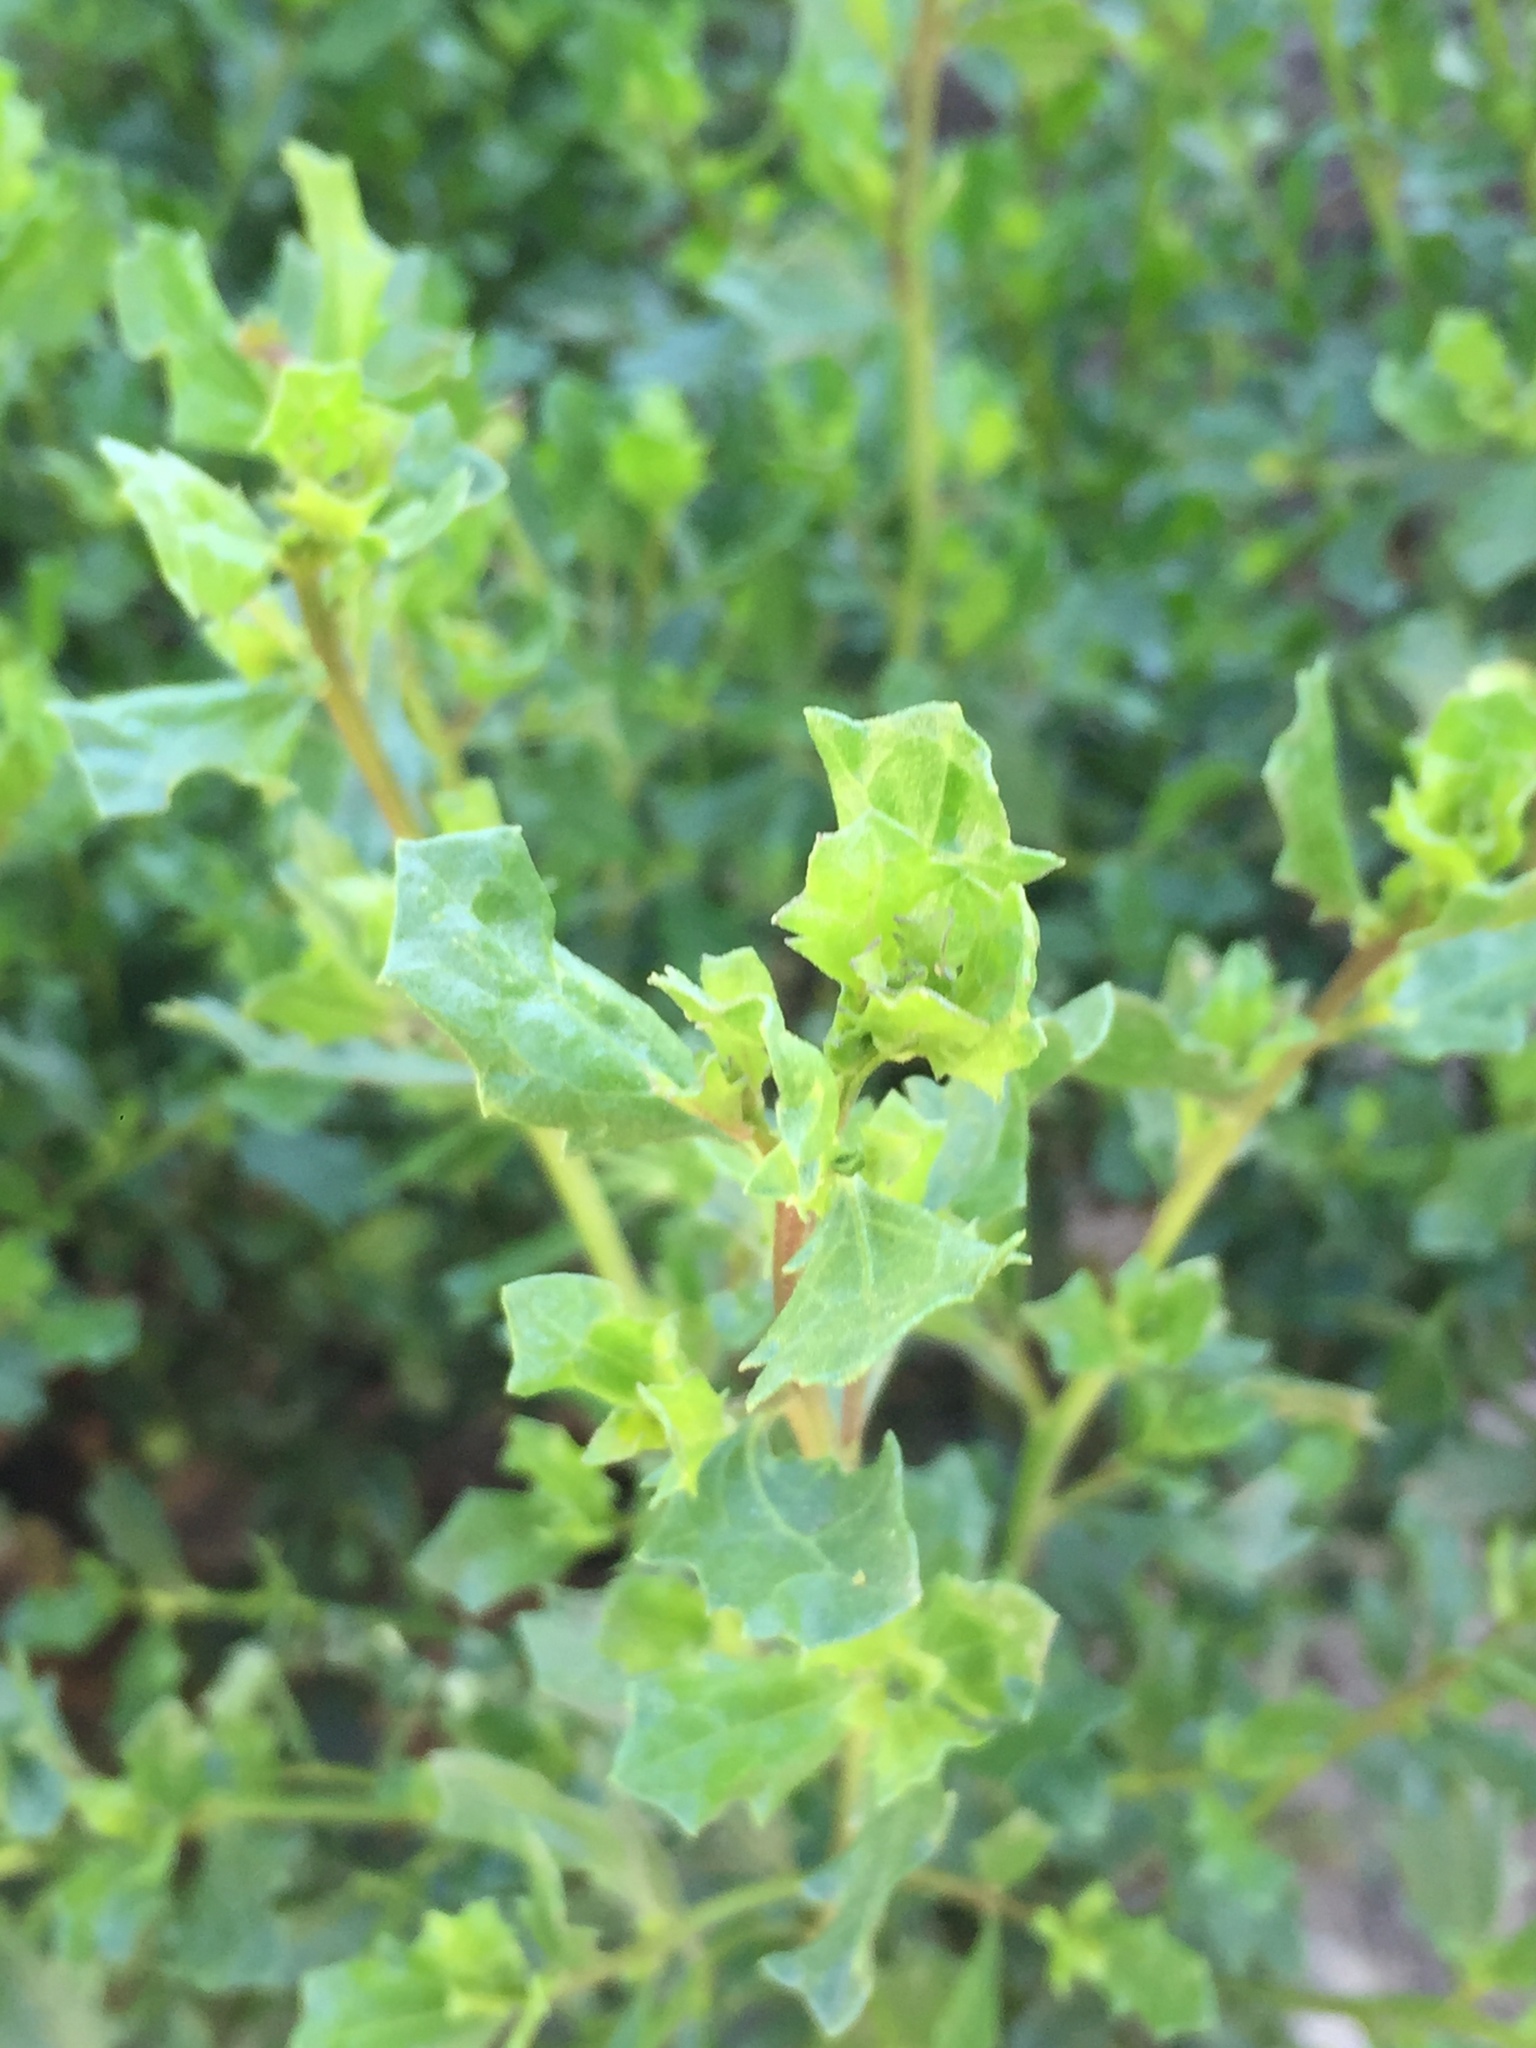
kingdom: Plantae
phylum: Tracheophyta
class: Magnoliopsida
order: Asterales
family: Asteraceae
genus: Baccharis
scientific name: Baccharis pilularis
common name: Coyotebrush
